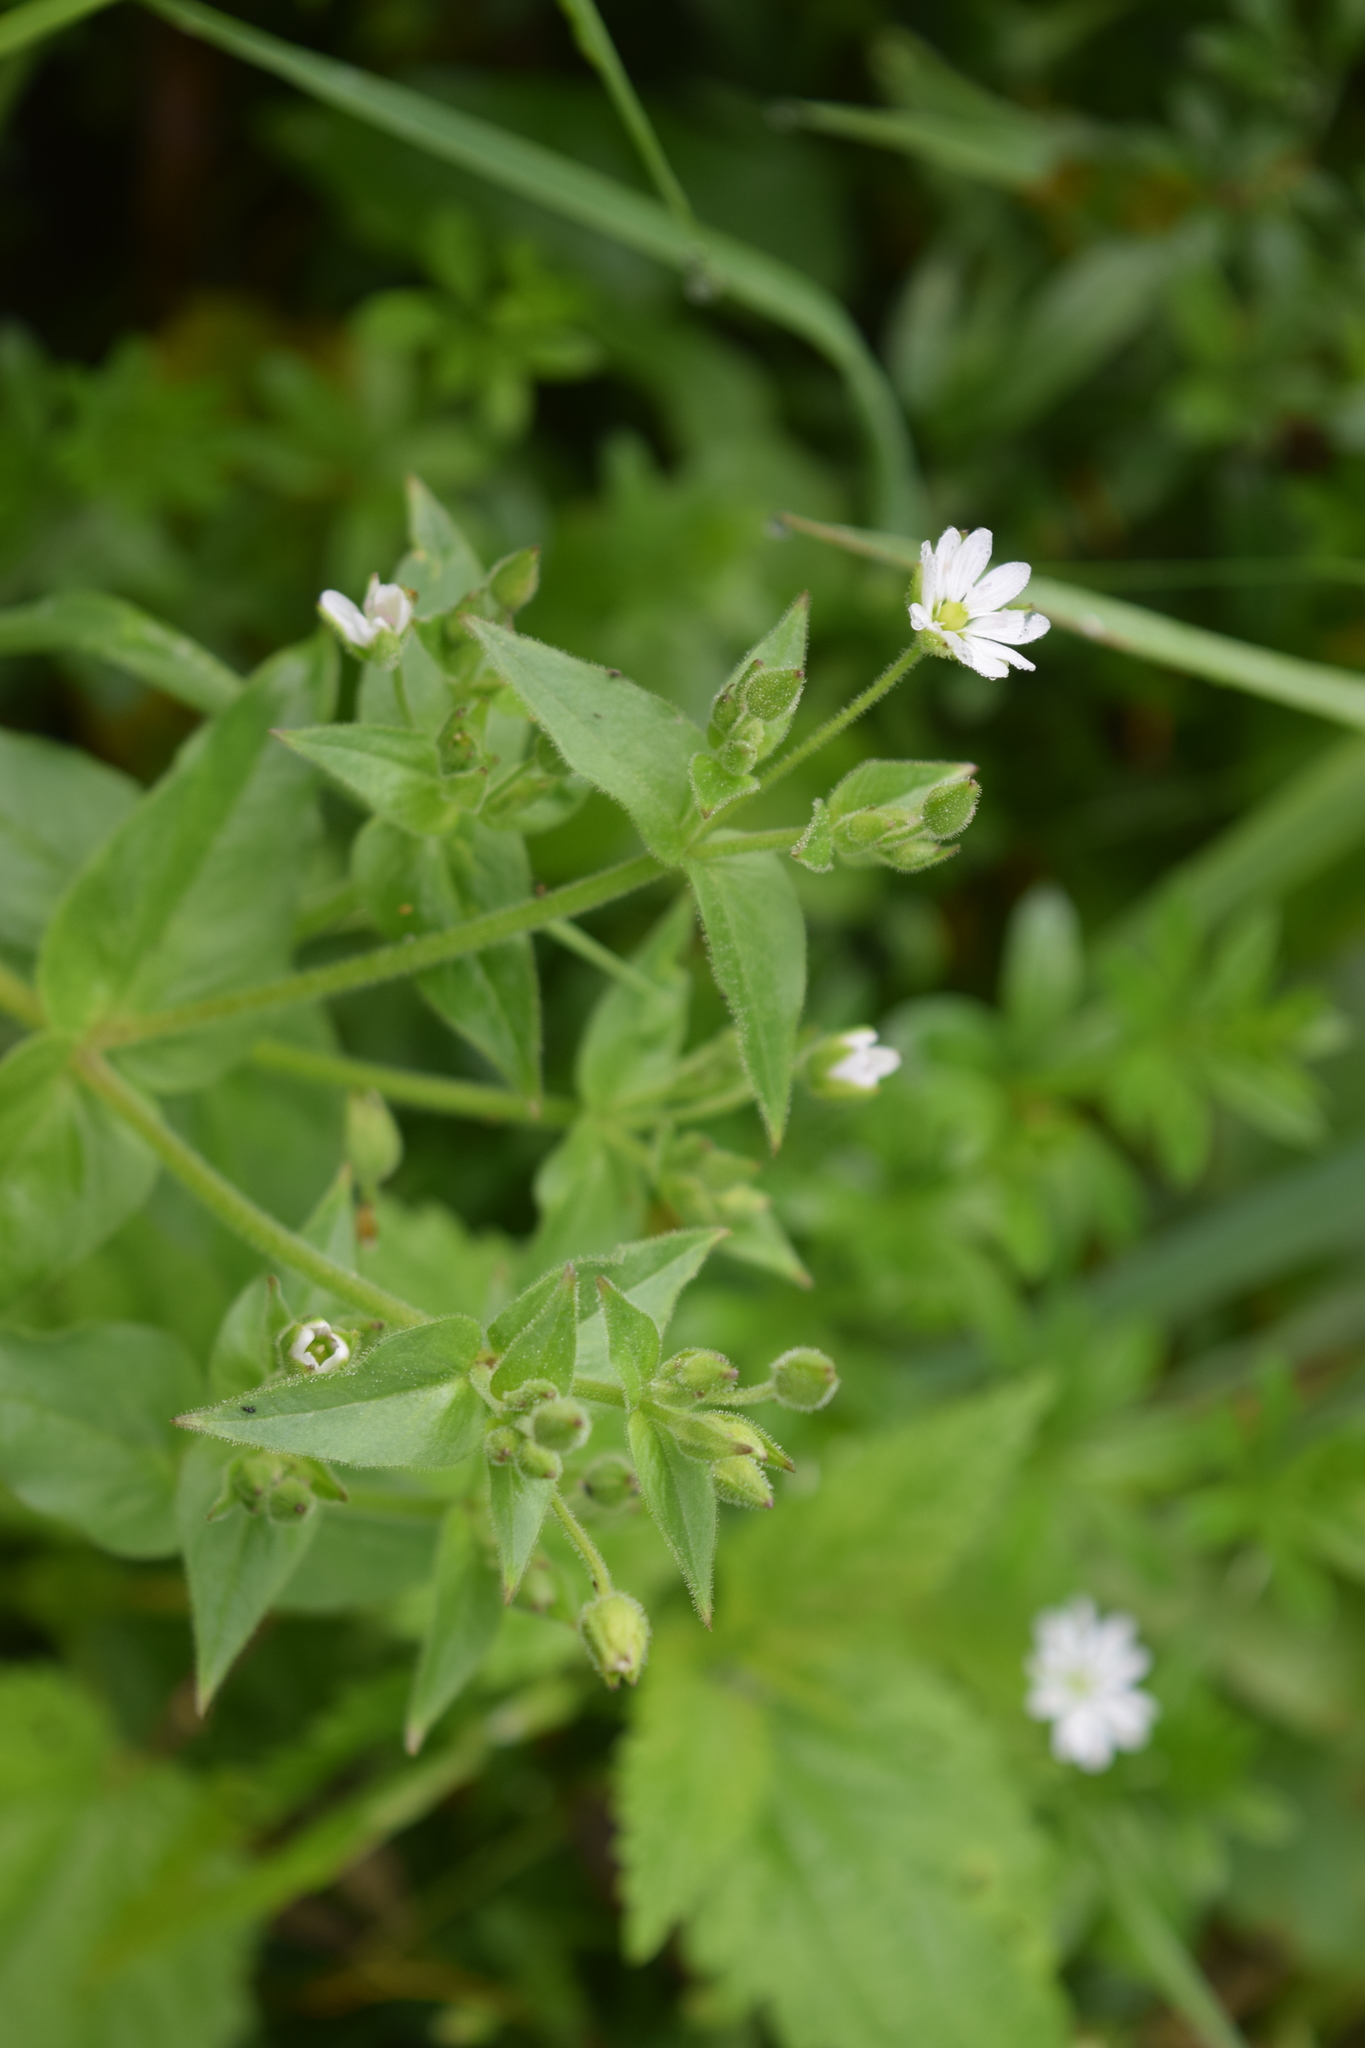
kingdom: Plantae
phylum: Tracheophyta
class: Magnoliopsida
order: Caryophyllales
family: Caryophyllaceae
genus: Stellaria
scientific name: Stellaria aquatica
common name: Water chickweed
